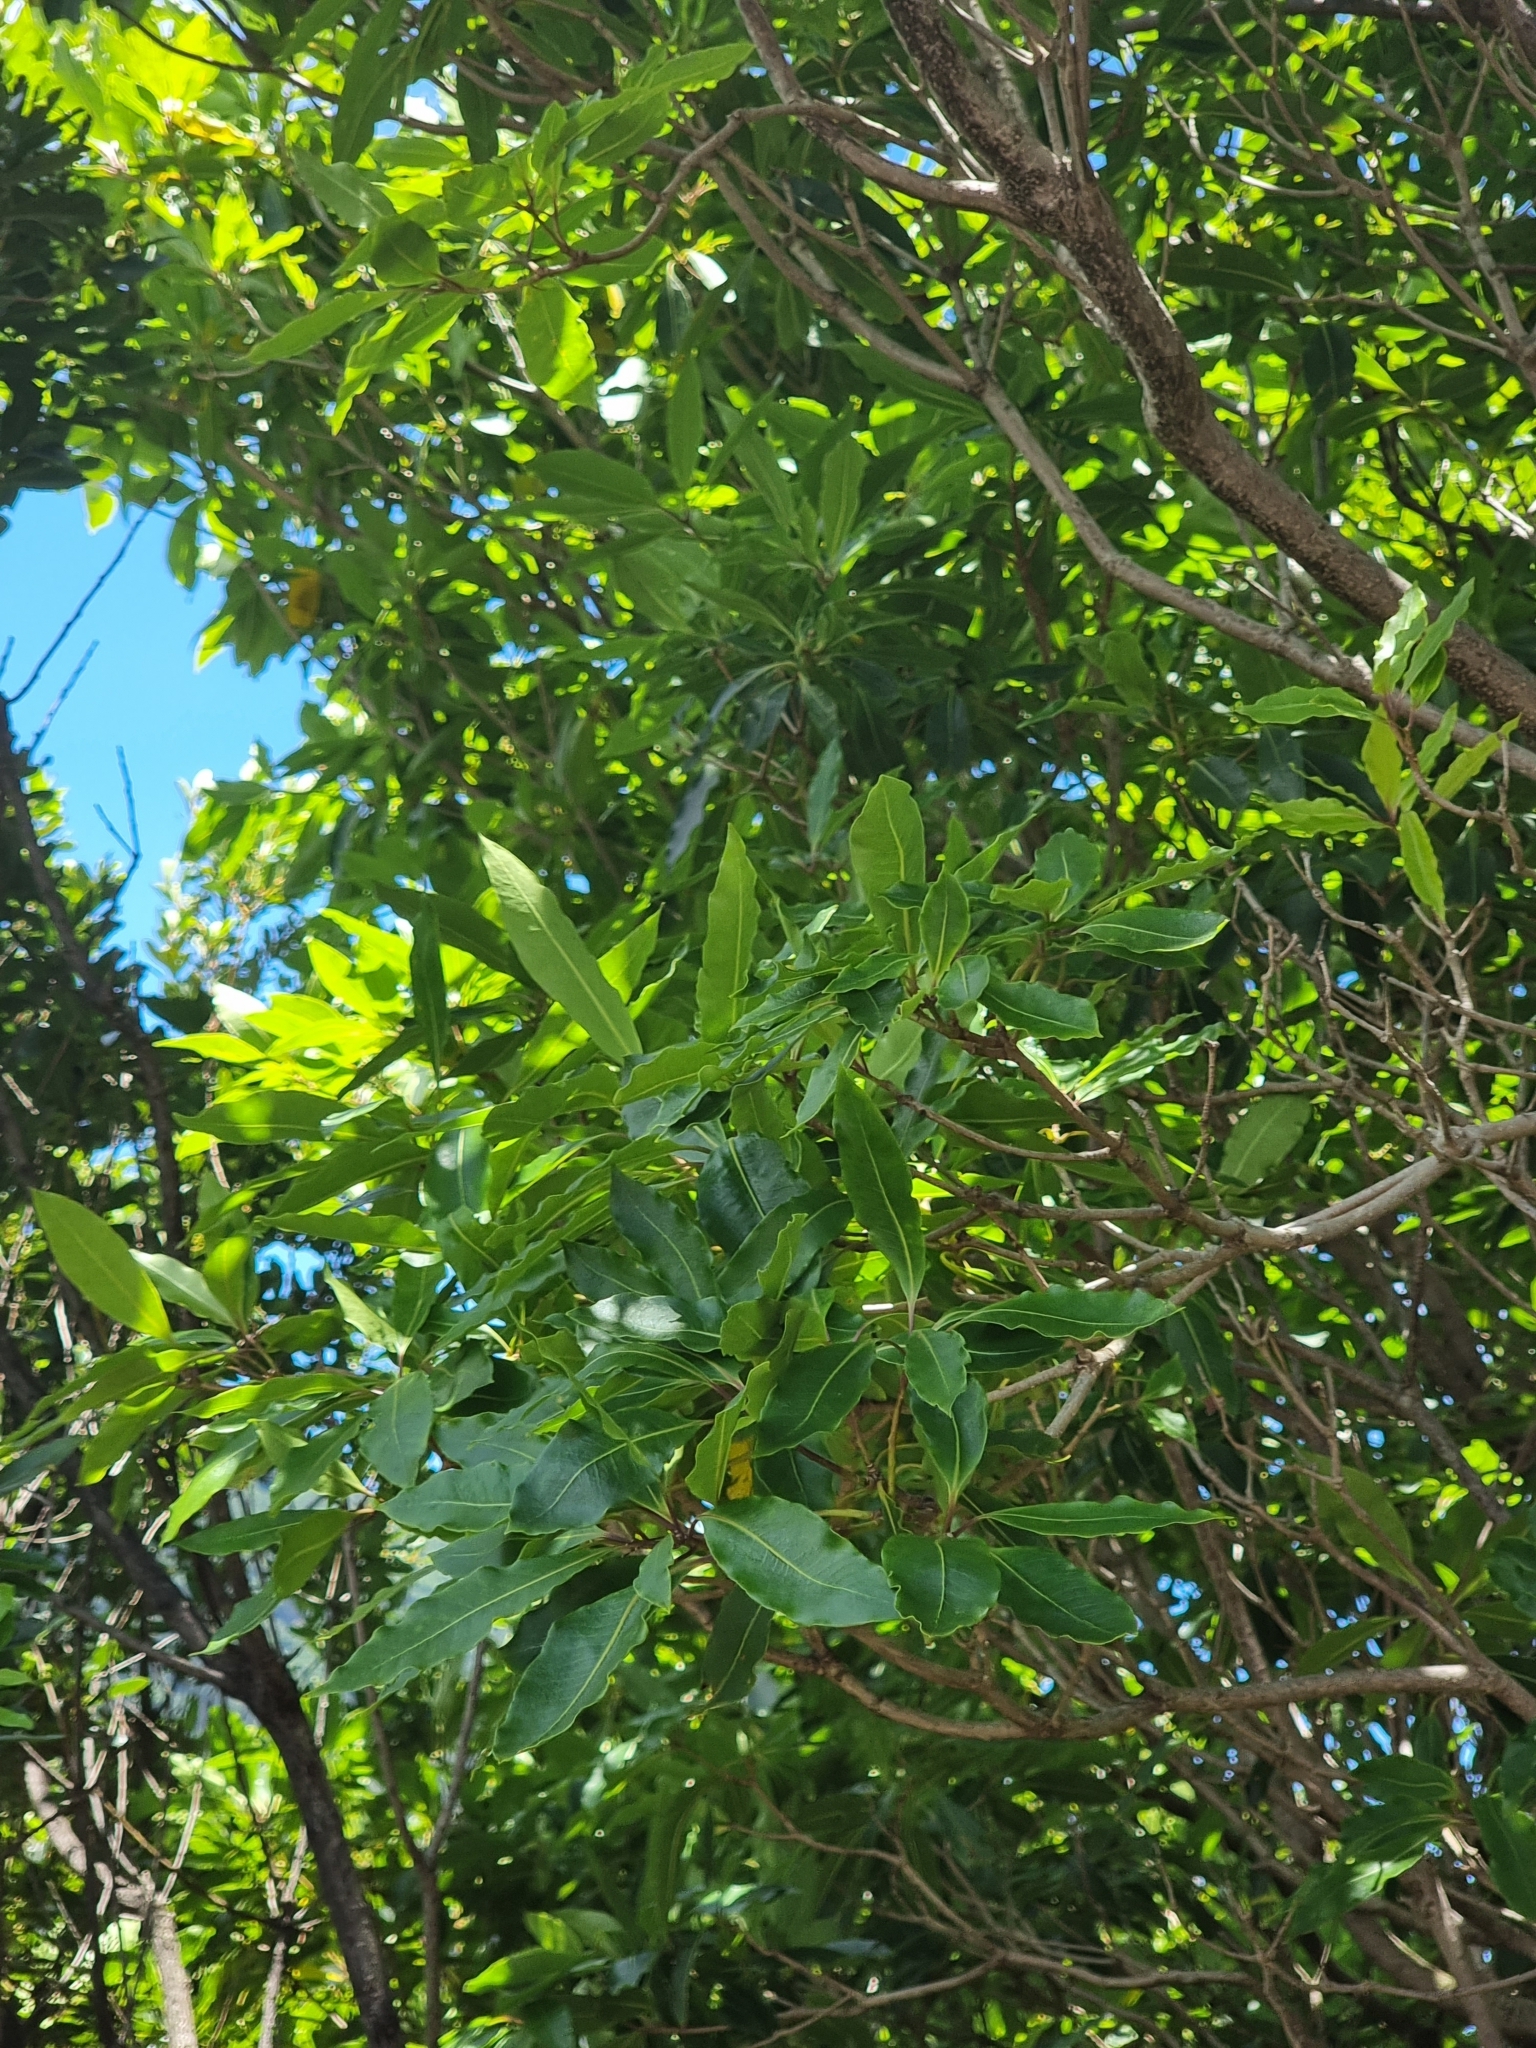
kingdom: Plantae
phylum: Tracheophyta
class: Magnoliopsida
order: Apiales
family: Pittosporaceae
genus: Pittosporum
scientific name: Pittosporum undulatum
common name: Australian cheesewood
